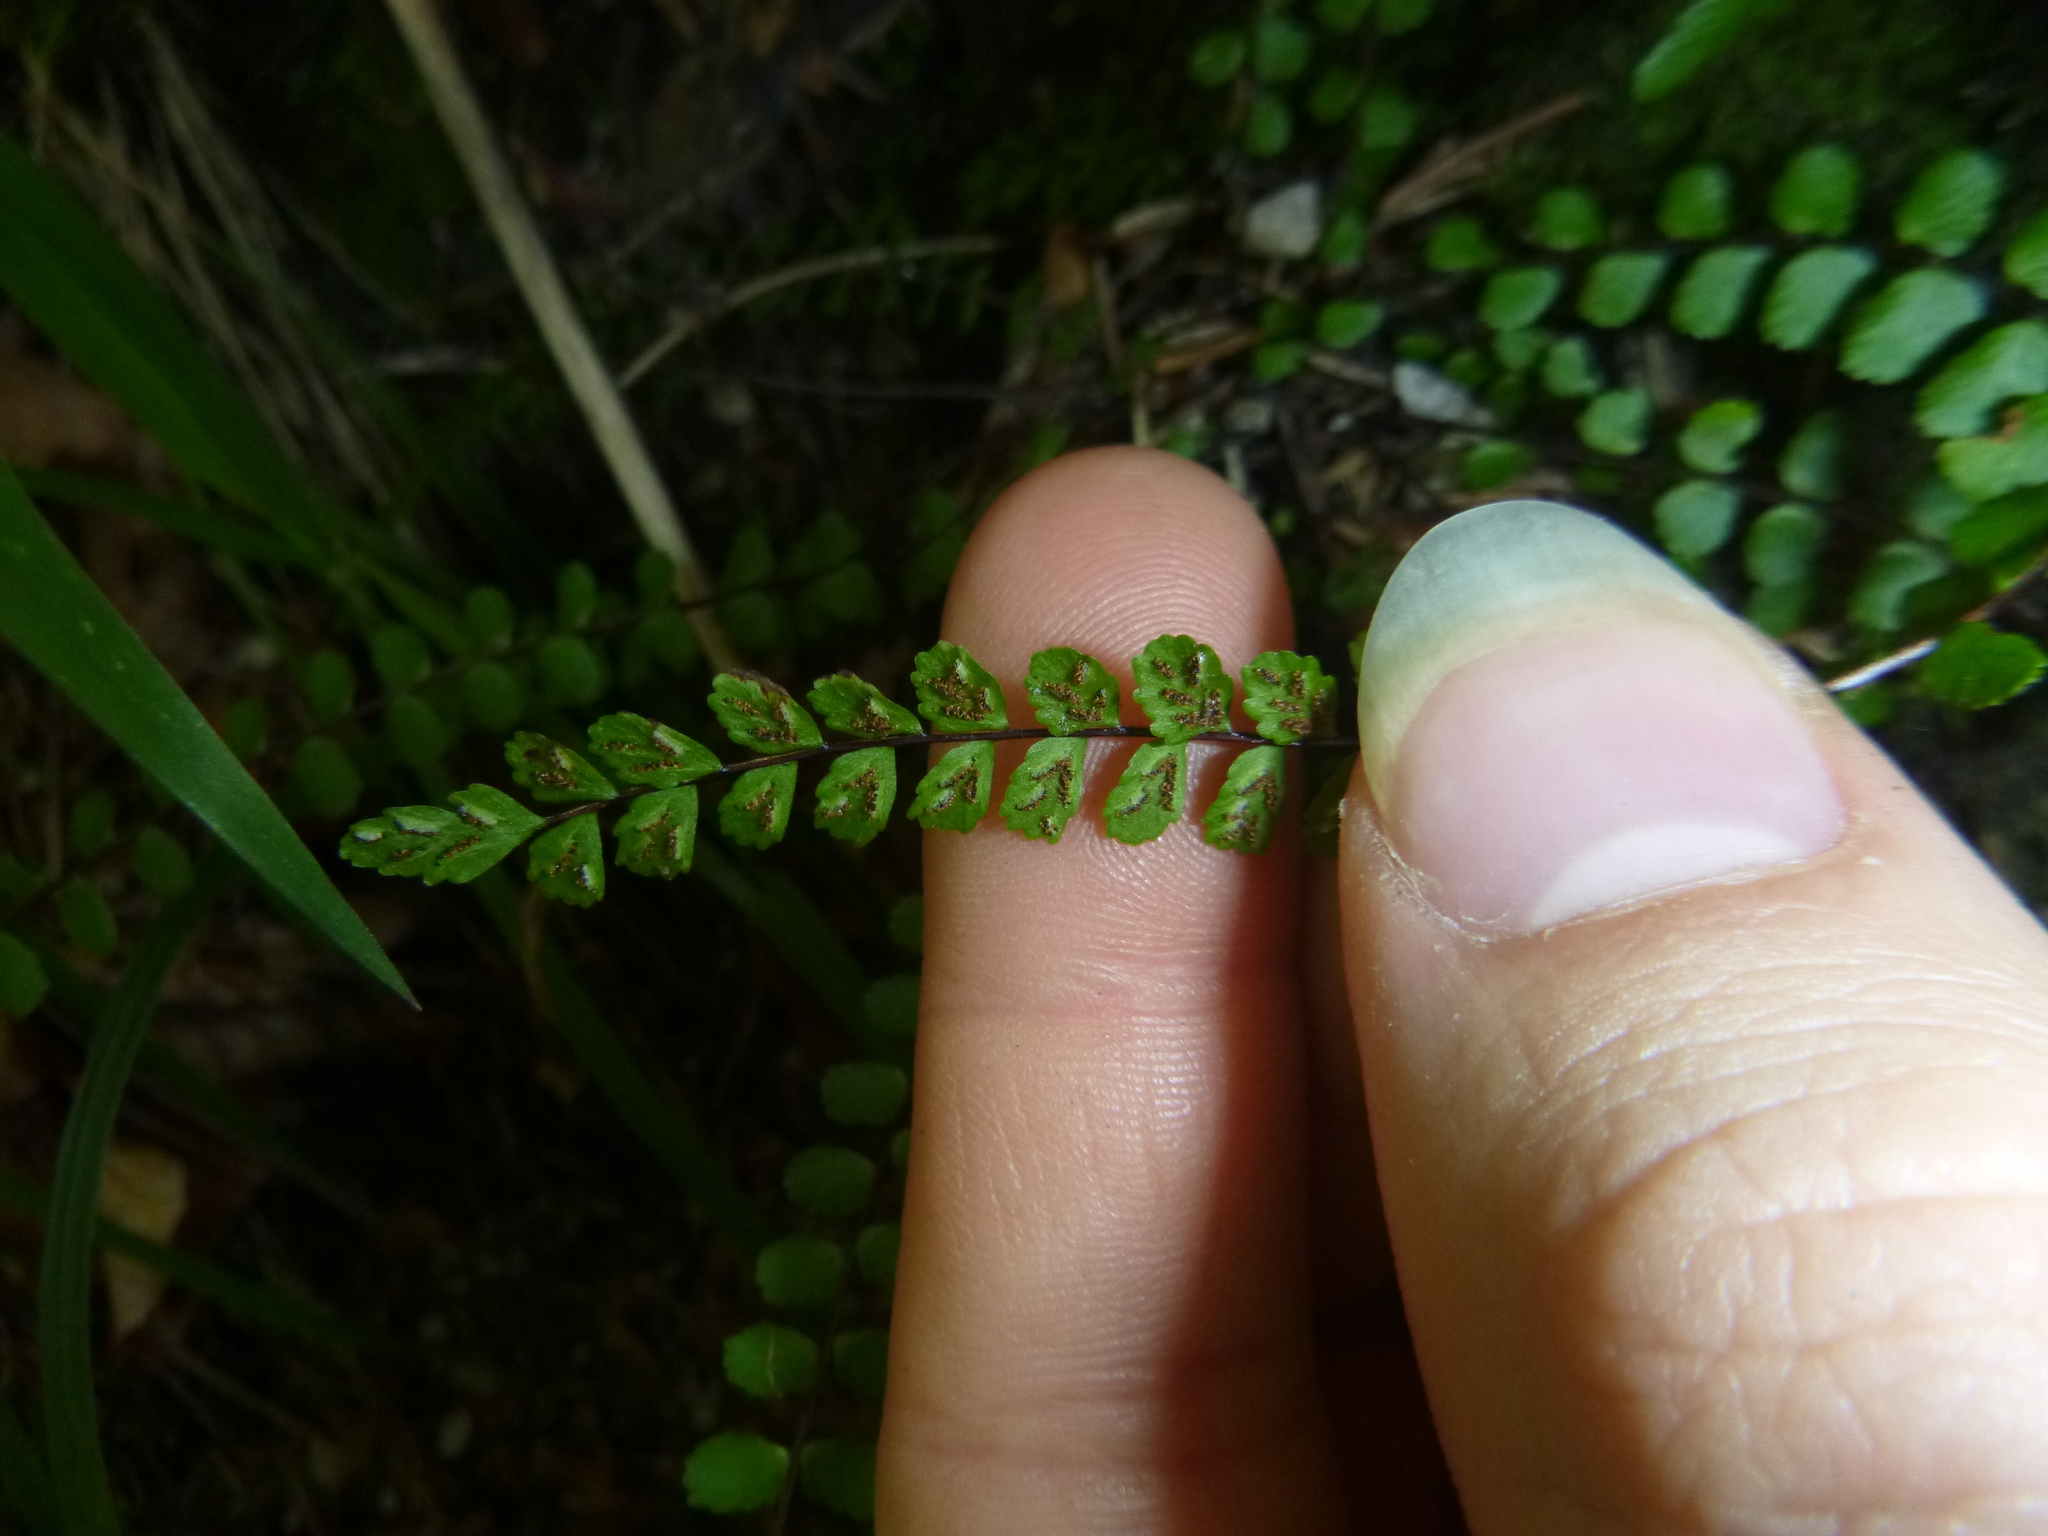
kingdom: Plantae
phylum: Tracheophyta
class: Polypodiopsida
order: Polypodiales
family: Aspleniaceae
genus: Asplenium
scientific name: Asplenium trichomanes
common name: Maidenhair spleenwort
